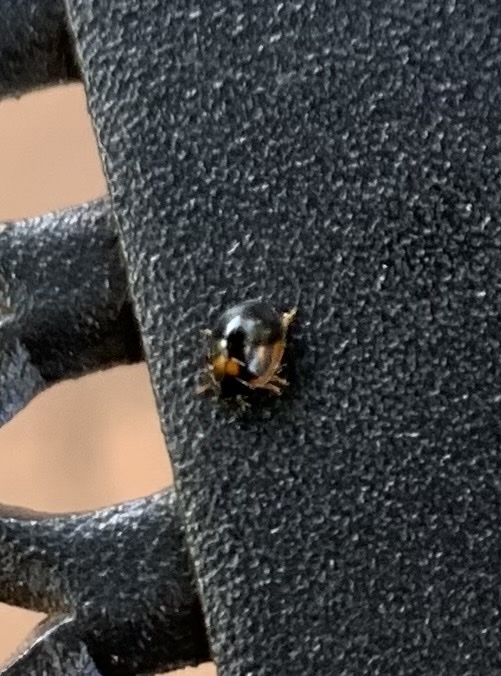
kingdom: Animalia
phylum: Arthropoda
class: Insecta
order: Coleoptera
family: Coccinellidae
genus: Exochomus
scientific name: Exochomus marginipennis
